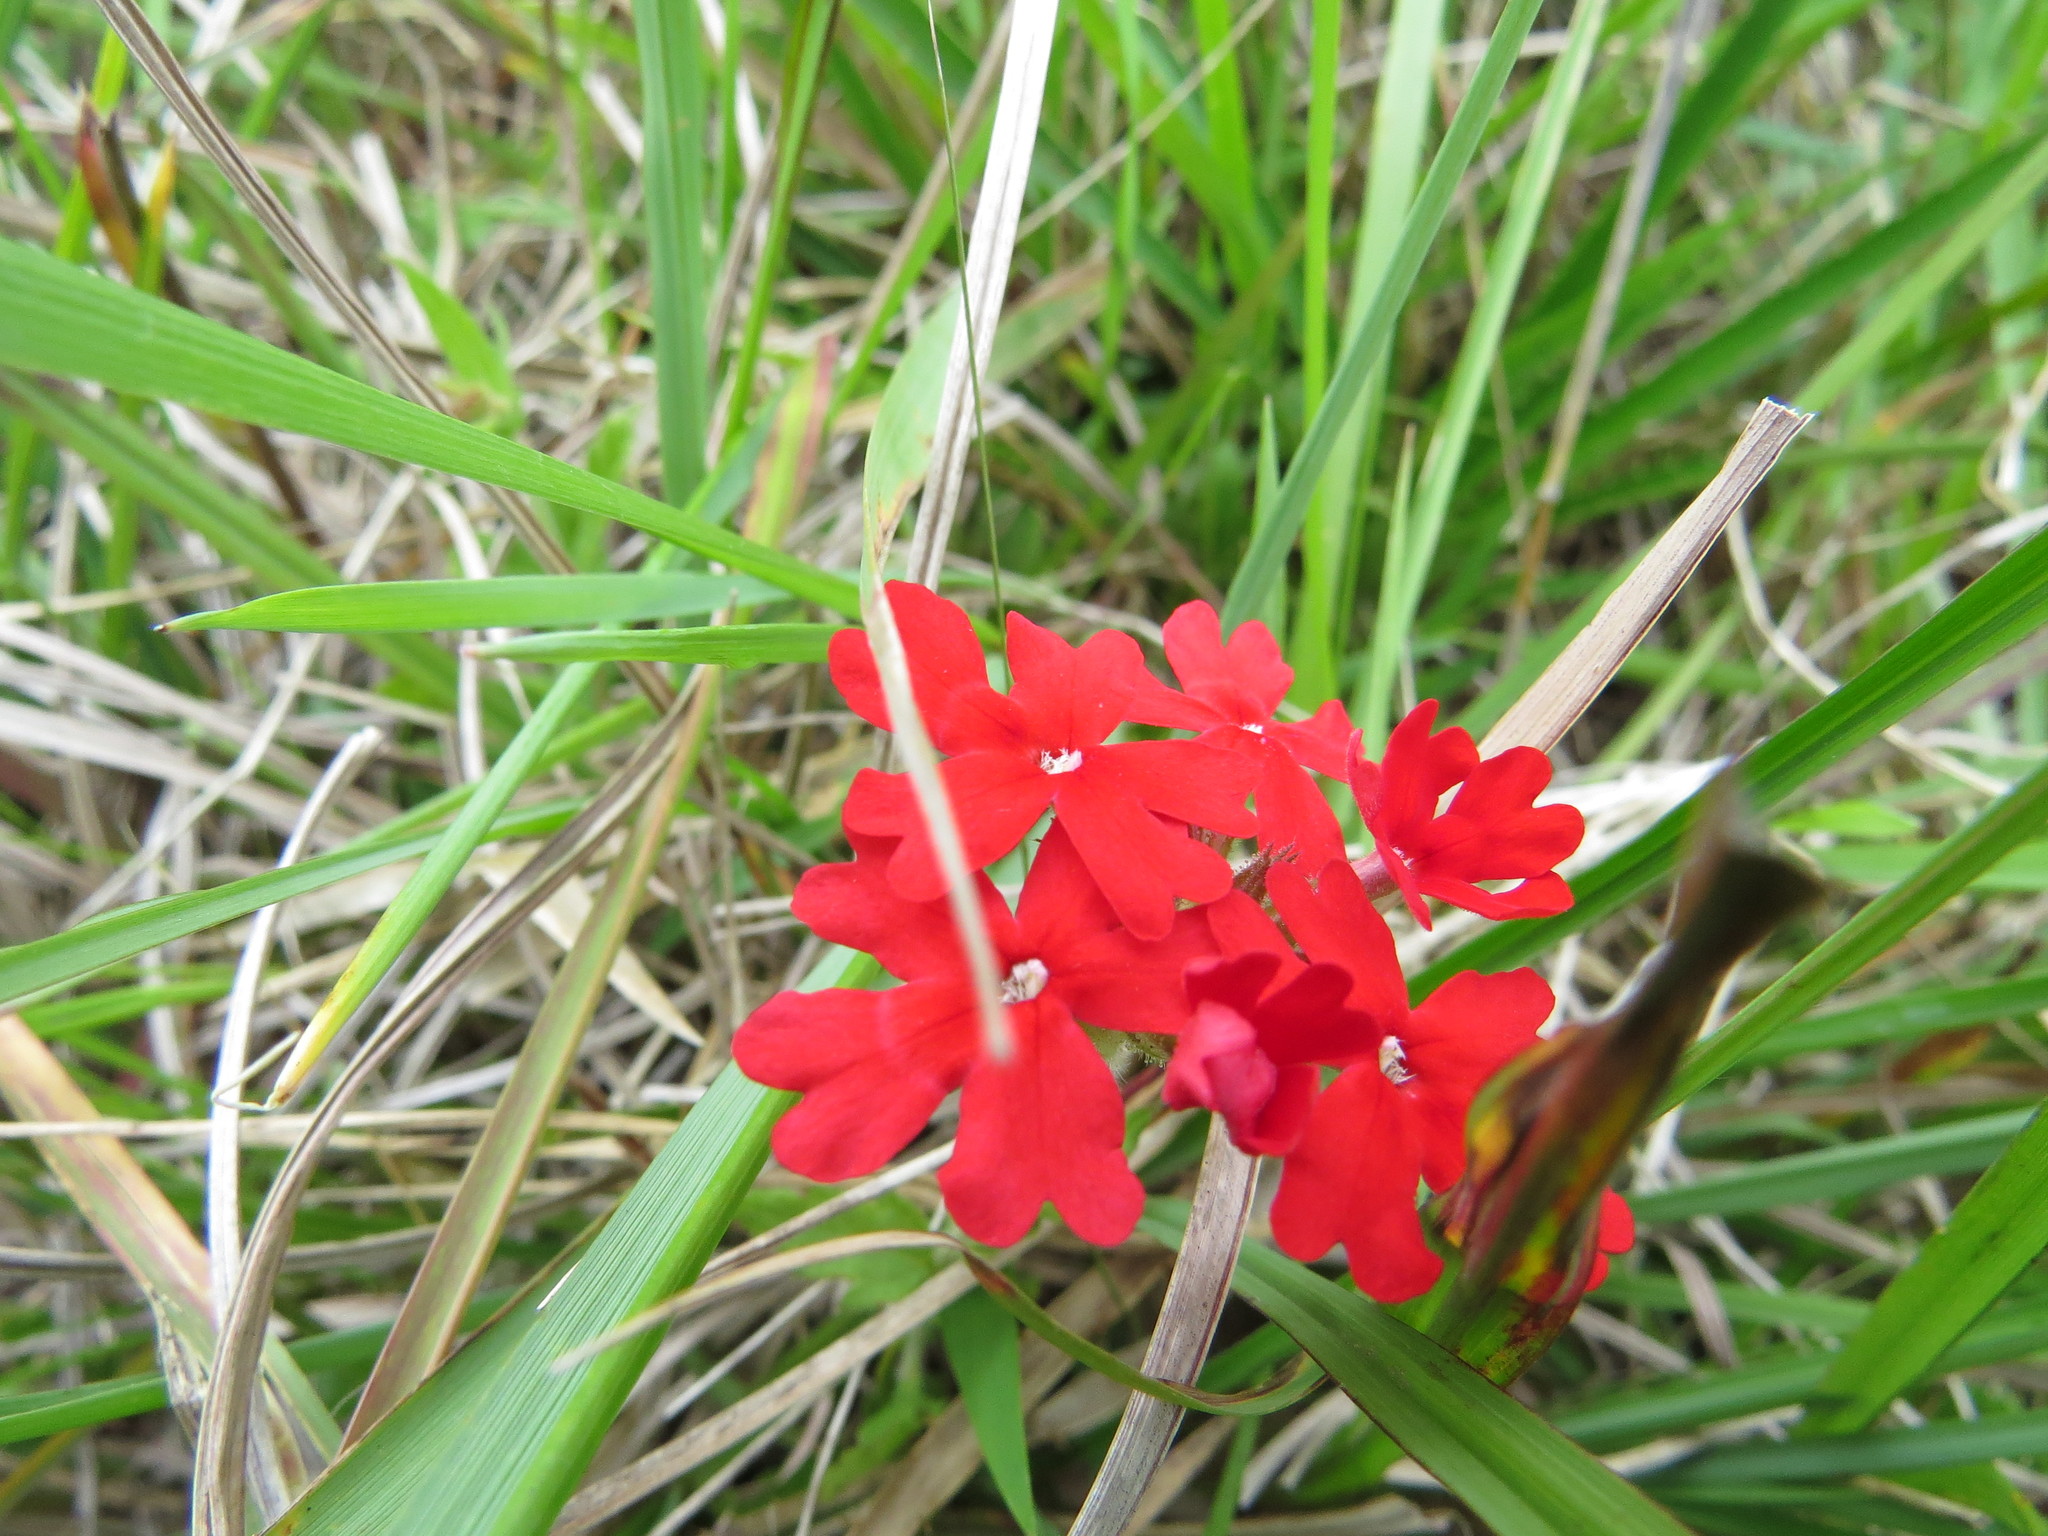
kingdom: Plantae
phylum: Tracheophyta
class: Magnoliopsida
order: Lamiales
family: Verbenaceae
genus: Verbena
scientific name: Verbena peruviana
